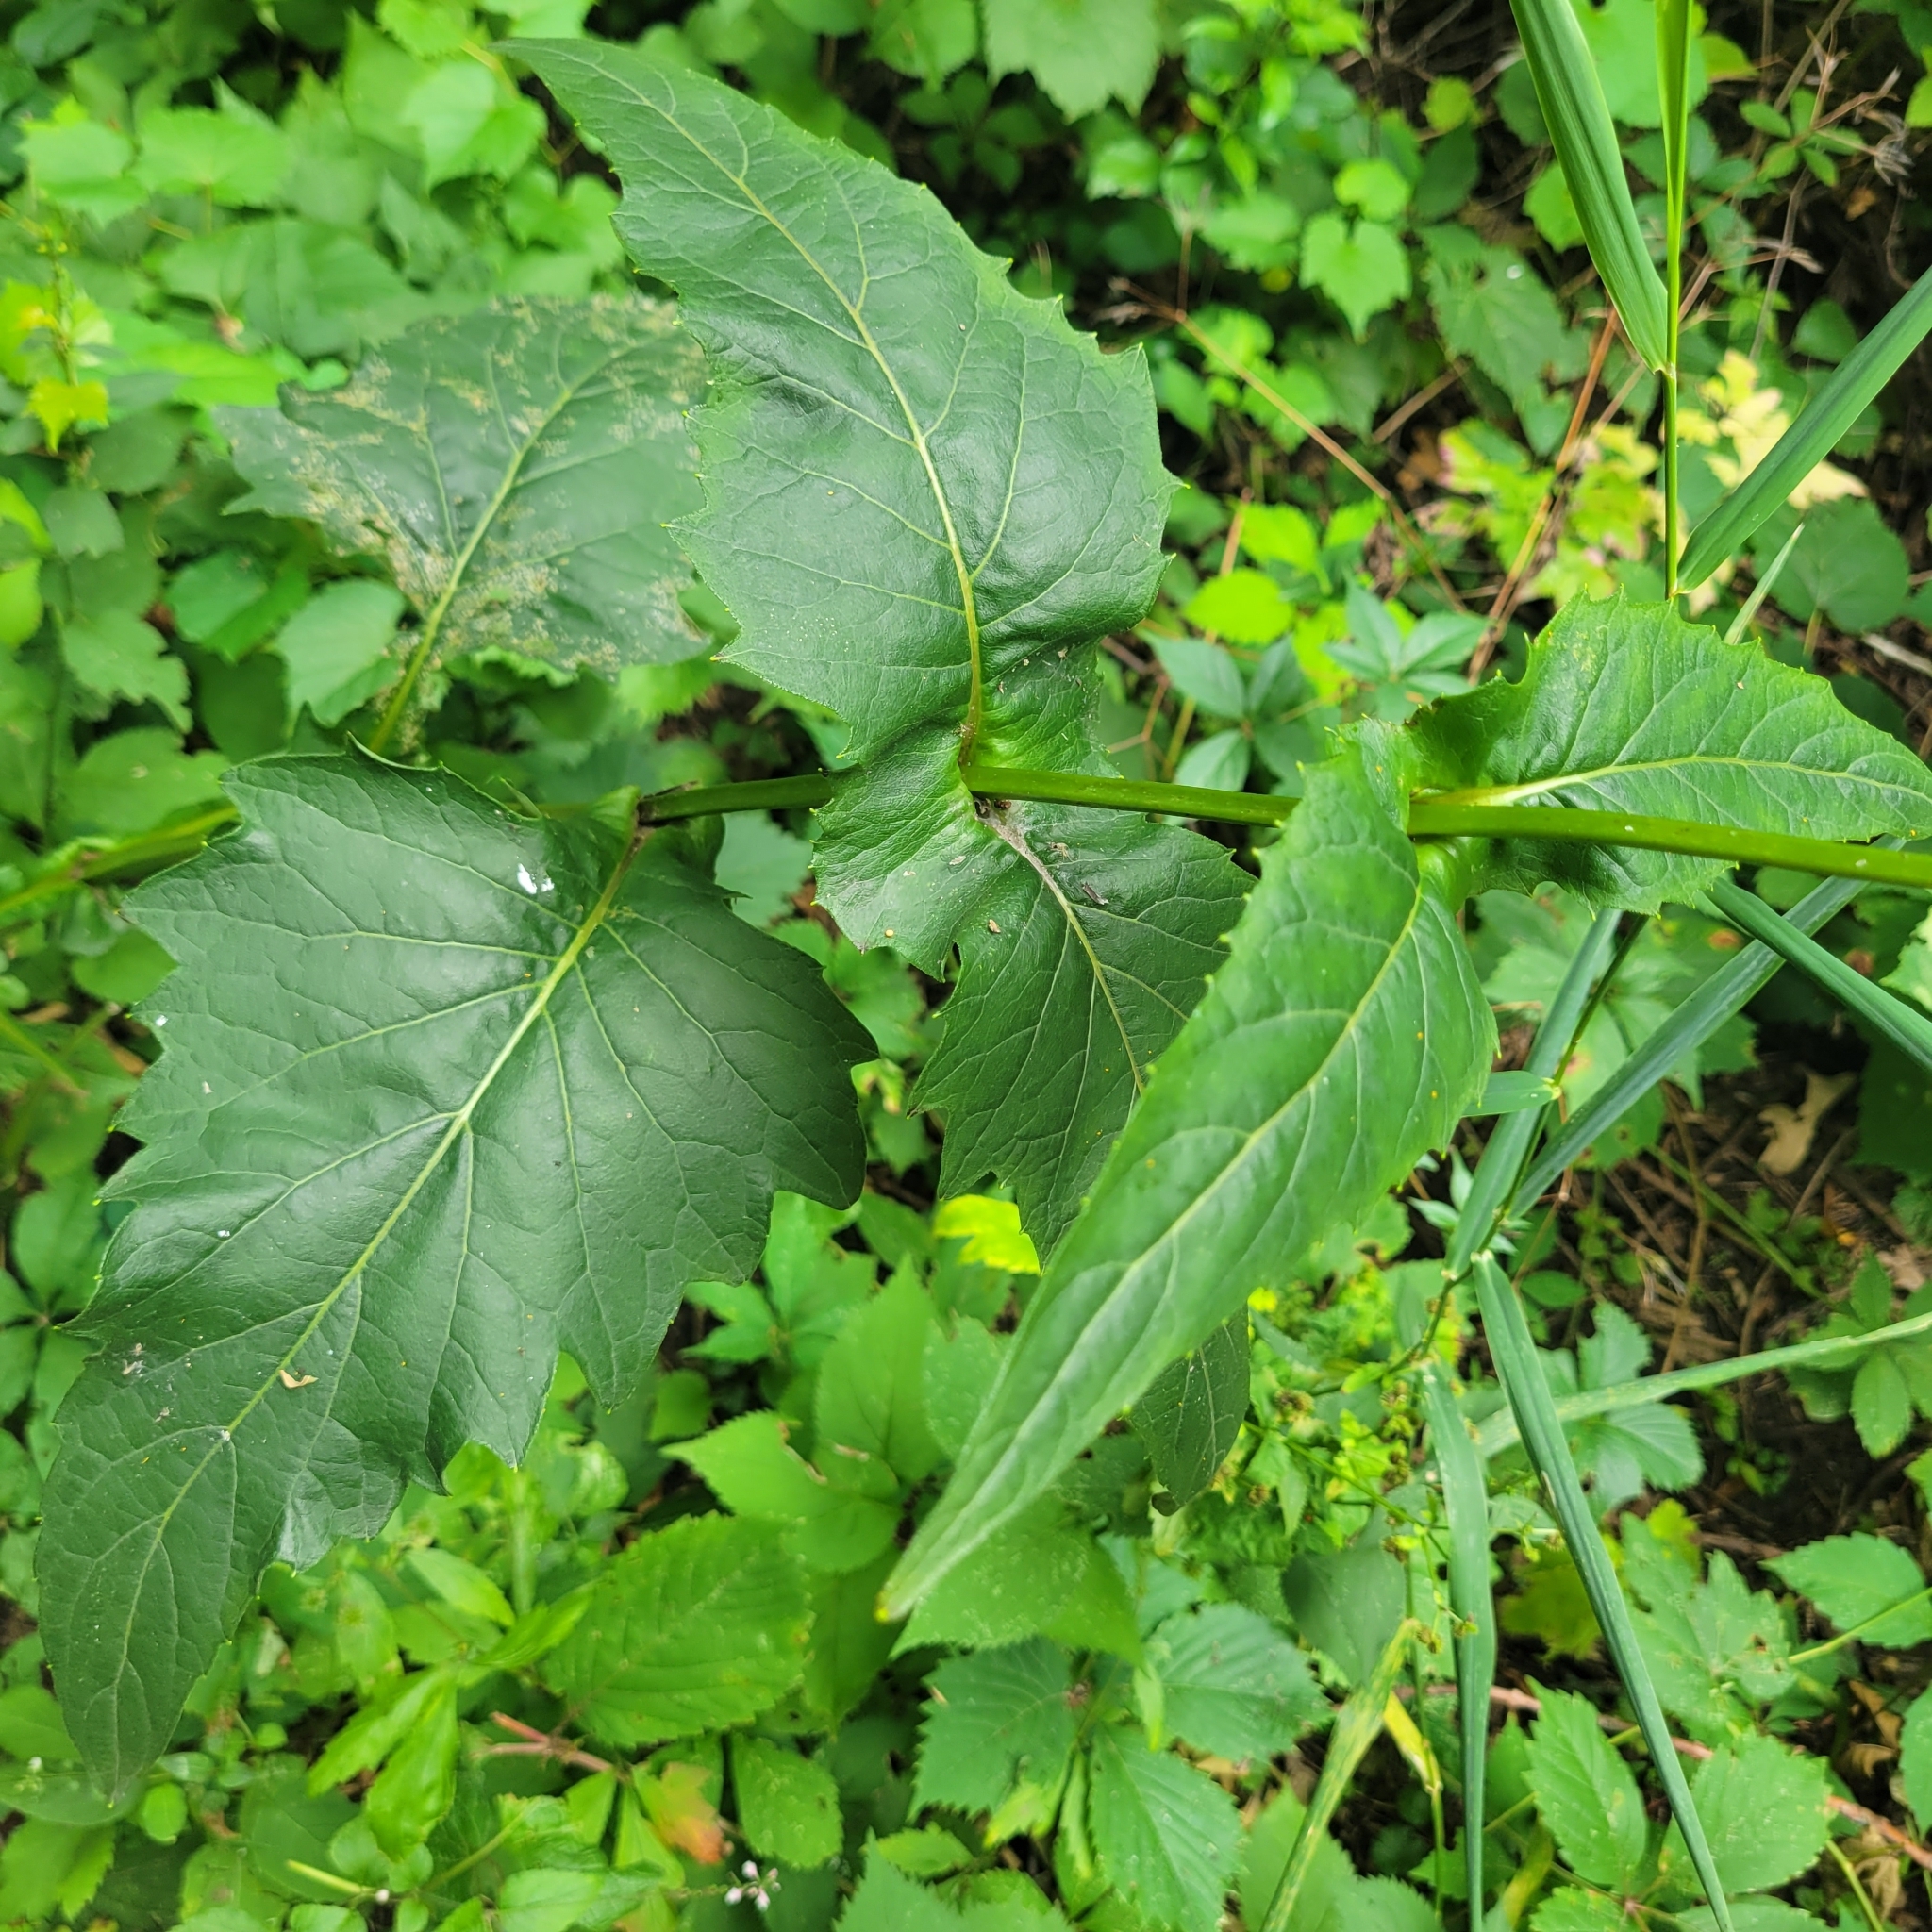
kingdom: Plantae
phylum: Tracheophyta
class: Magnoliopsida
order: Asterales
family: Asteraceae
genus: Silphium
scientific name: Silphium perfoliatum
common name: Cup-plant
